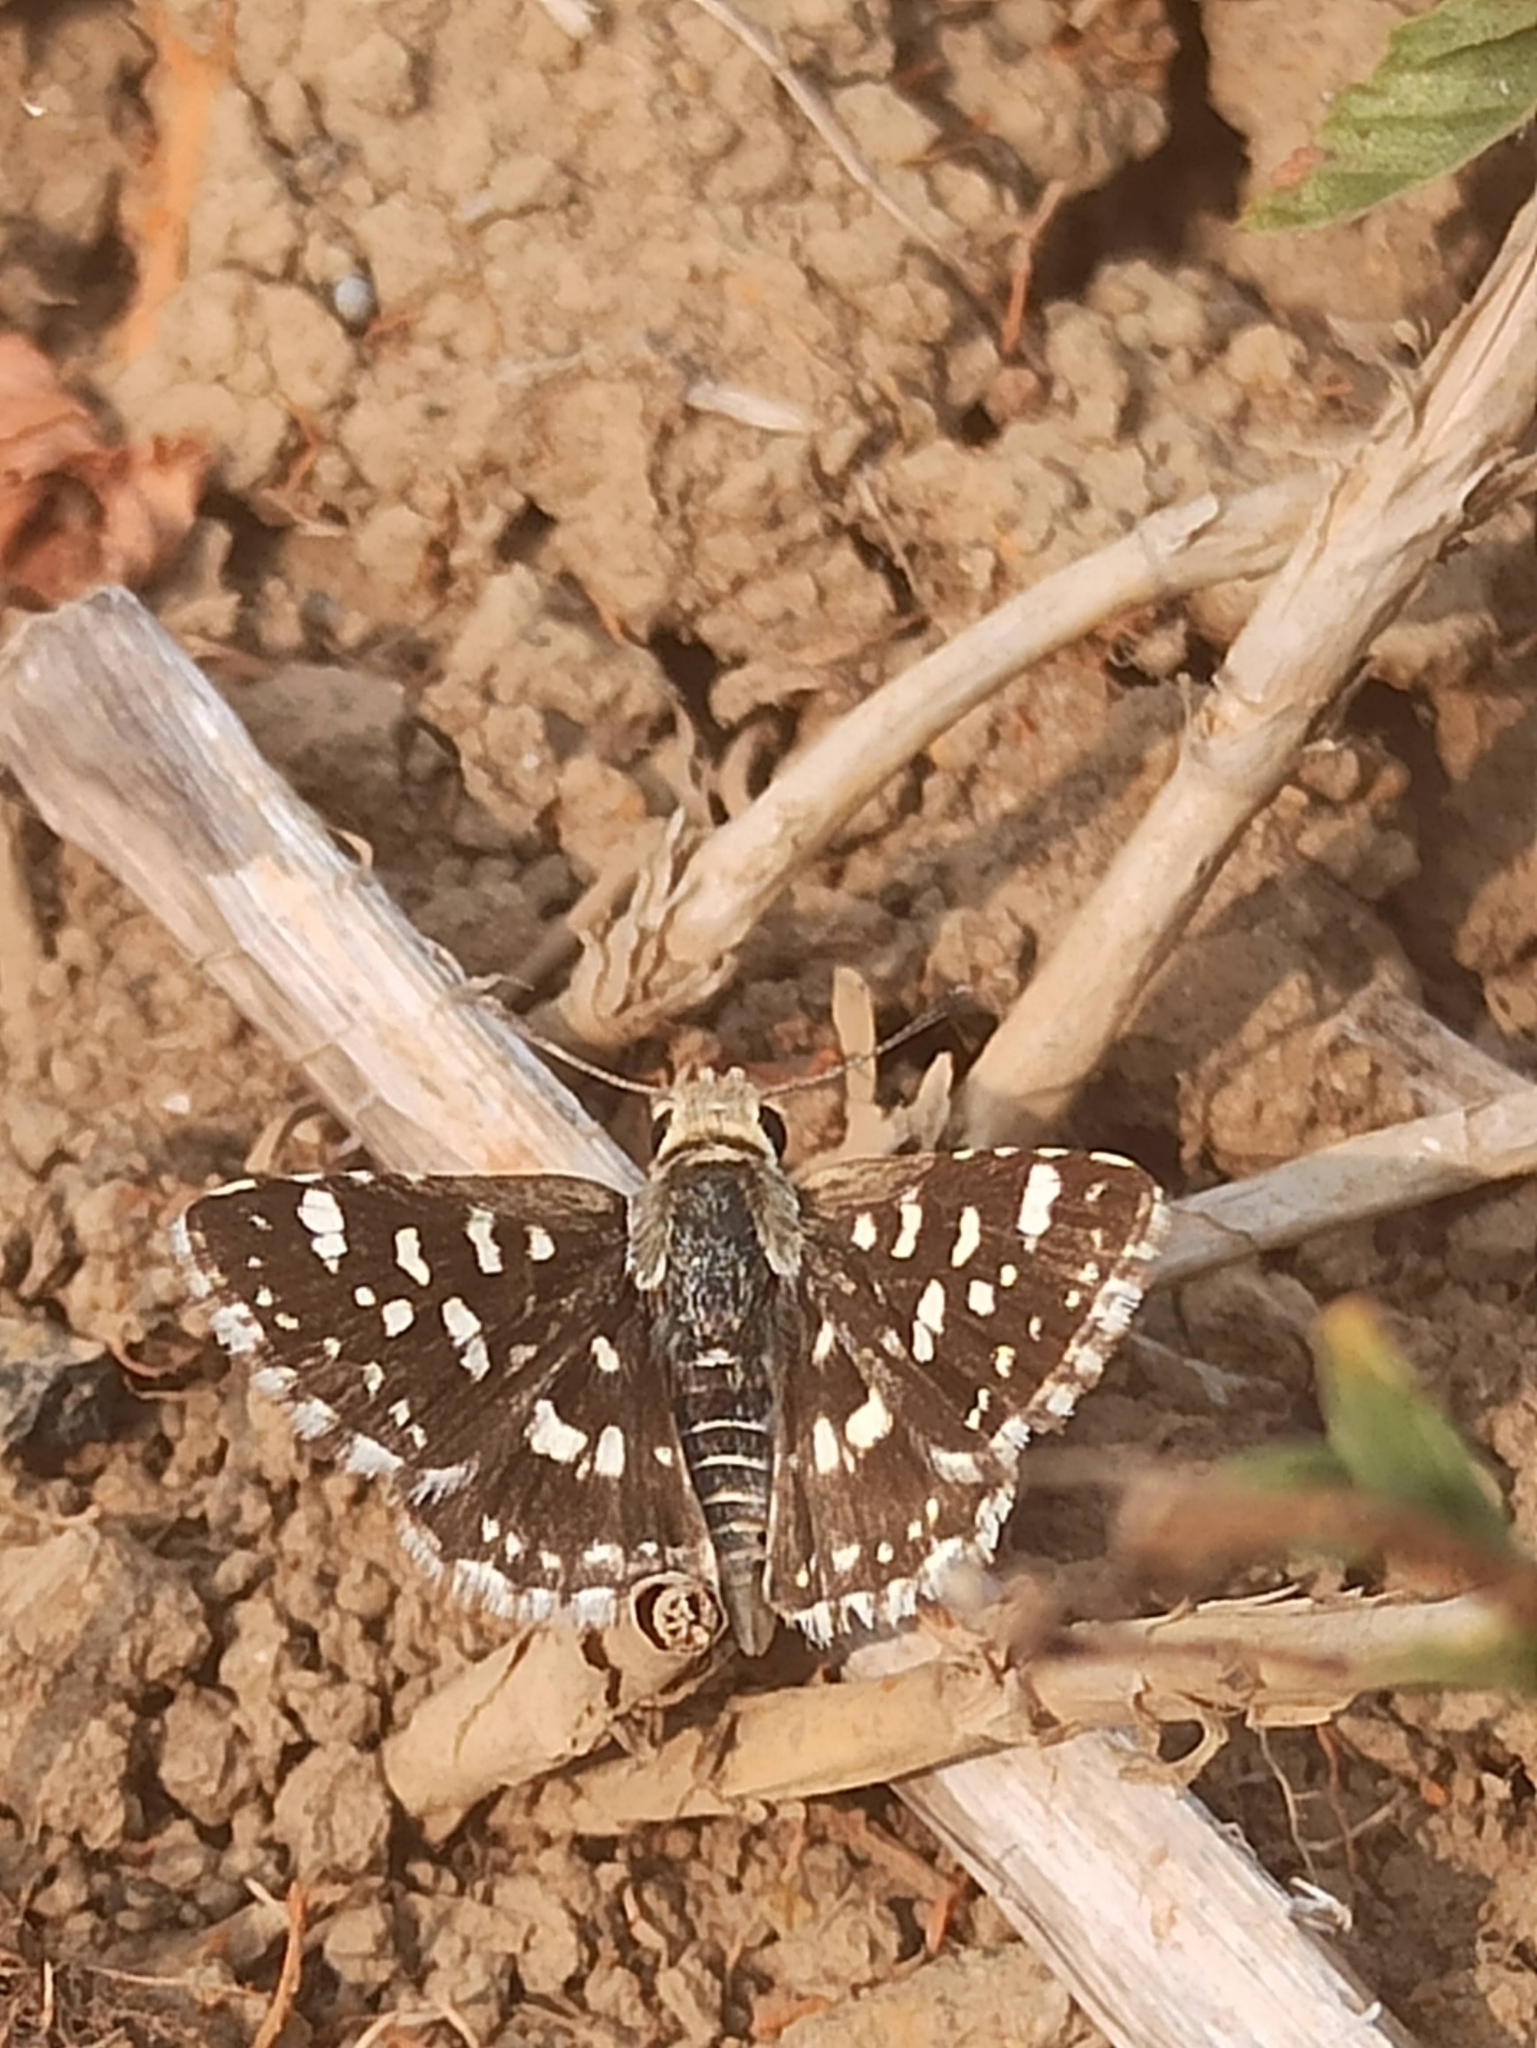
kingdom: Animalia
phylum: Arthropoda
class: Insecta
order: Lepidoptera
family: Hesperiidae
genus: Spialia
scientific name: Spialia galba
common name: Indian skipper
